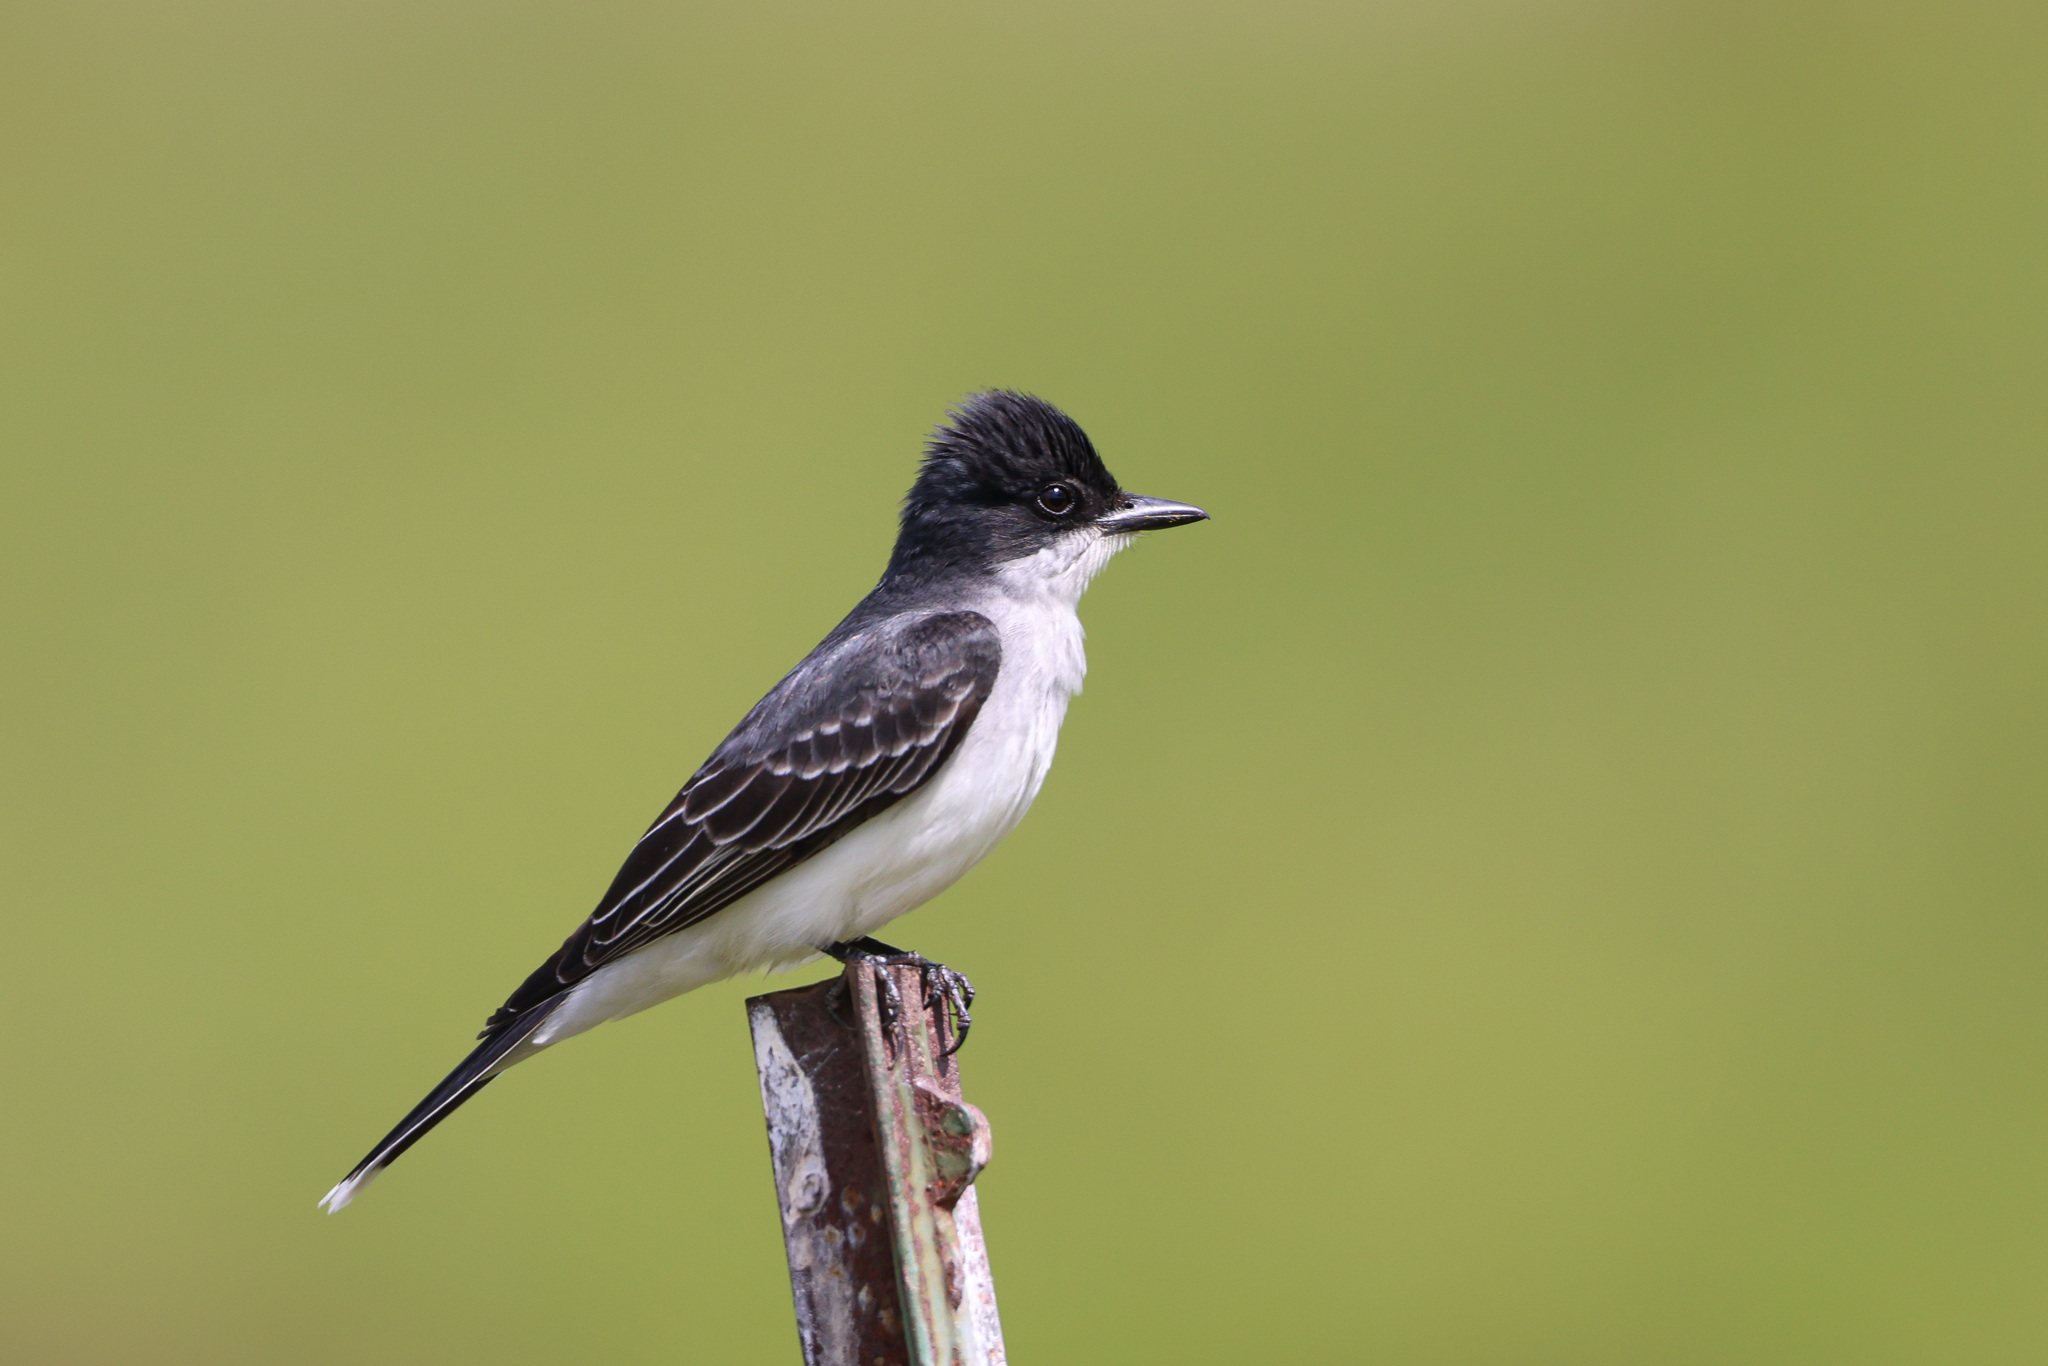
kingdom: Animalia
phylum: Chordata
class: Aves
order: Passeriformes
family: Tyrannidae
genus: Tyrannus
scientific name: Tyrannus tyrannus
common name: Eastern kingbird
